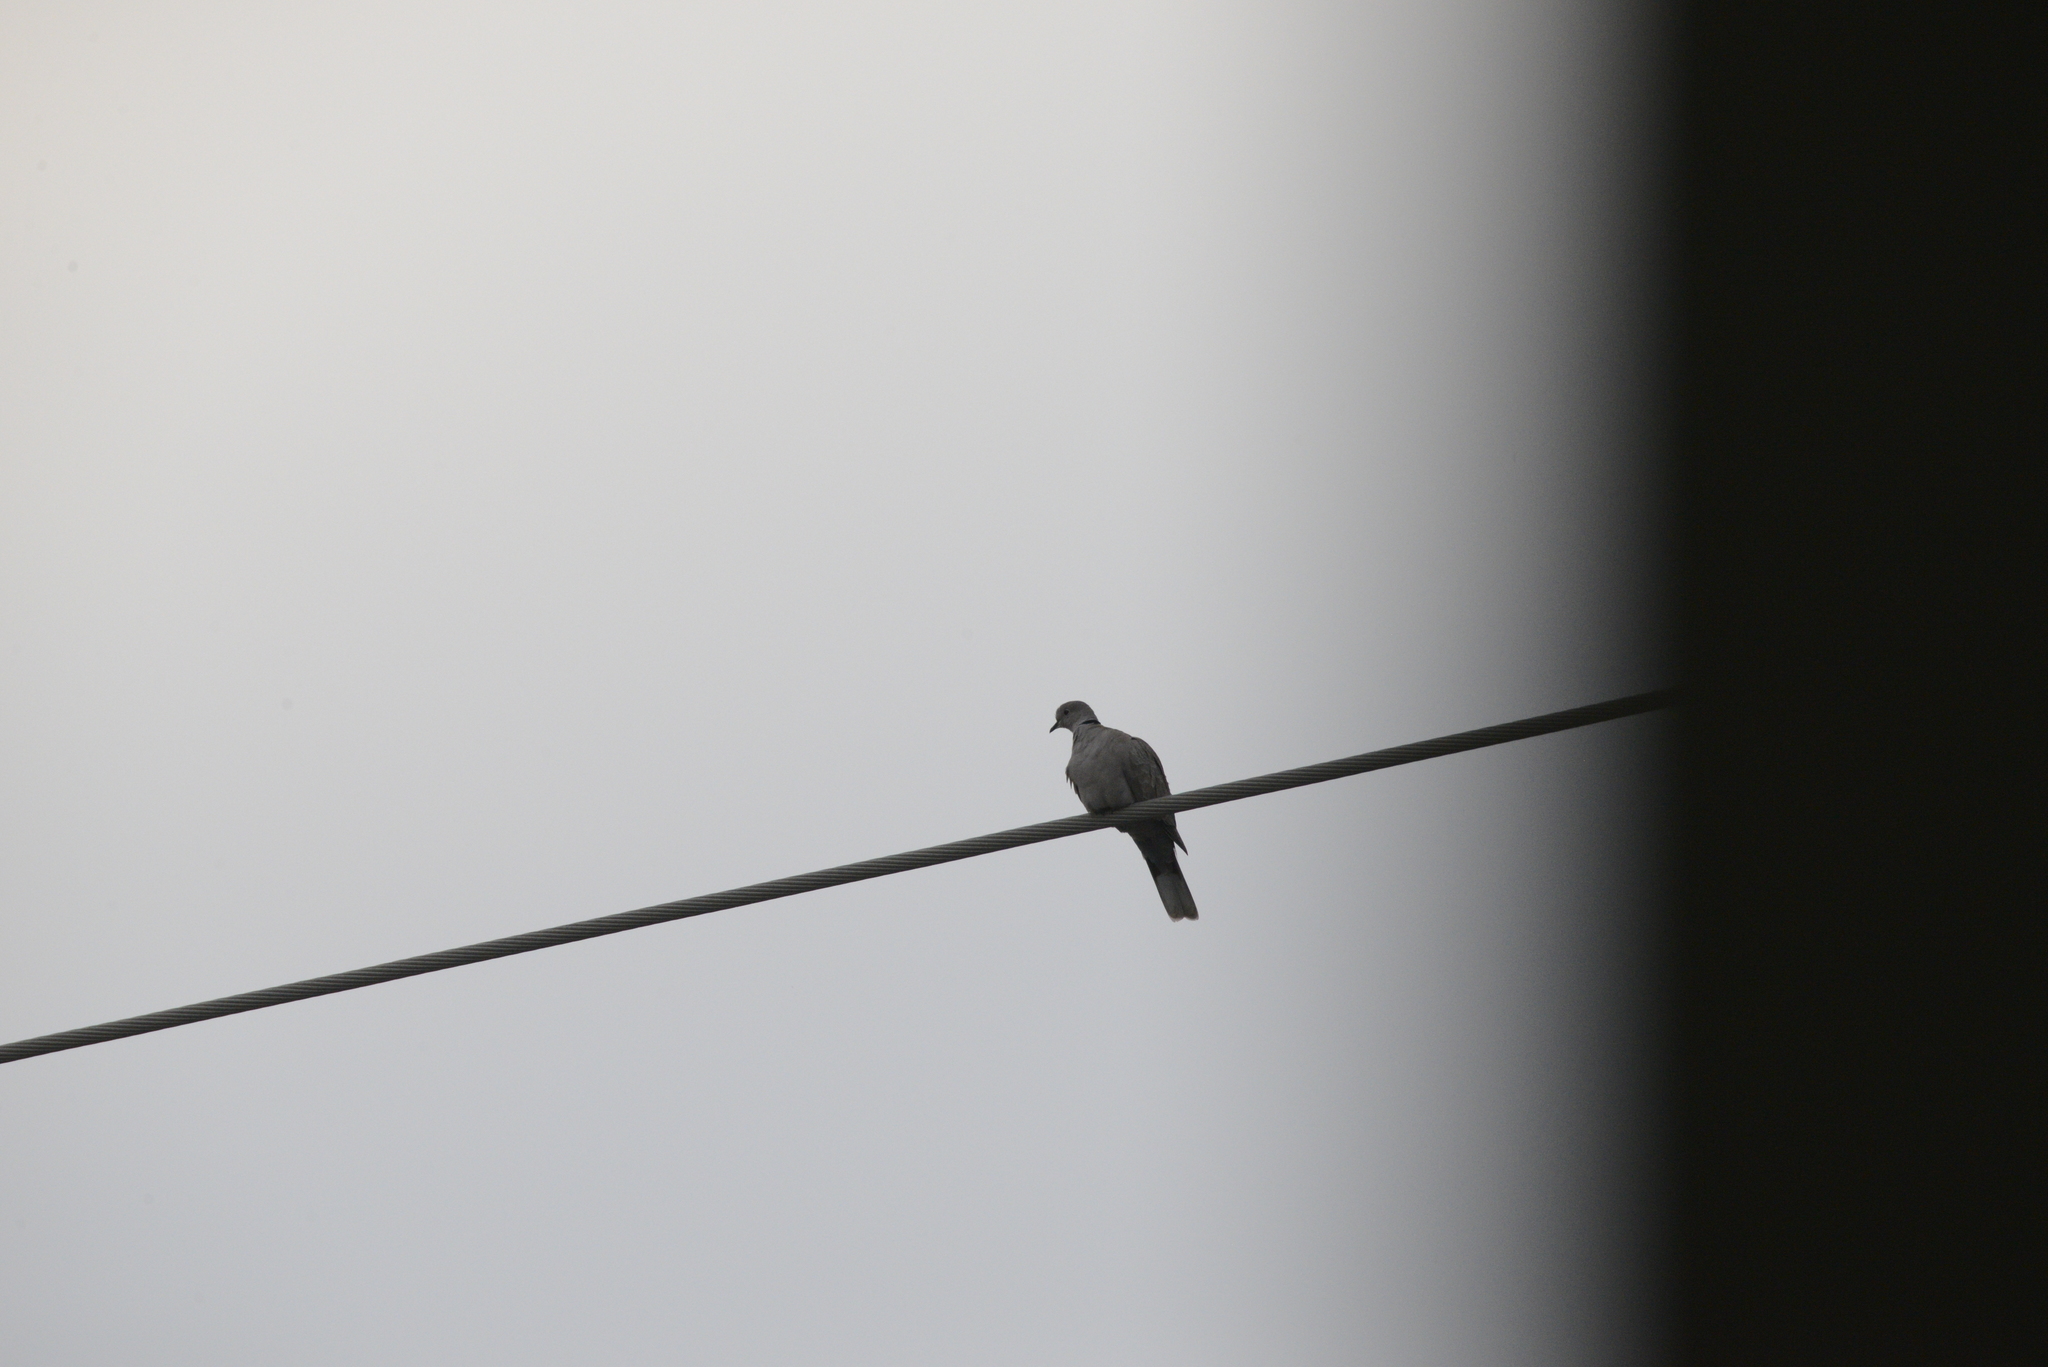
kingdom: Animalia
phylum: Chordata
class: Aves
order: Columbiformes
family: Columbidae
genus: Streptopelia
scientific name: Streptopelia decaocto
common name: Eurasian collared dove
